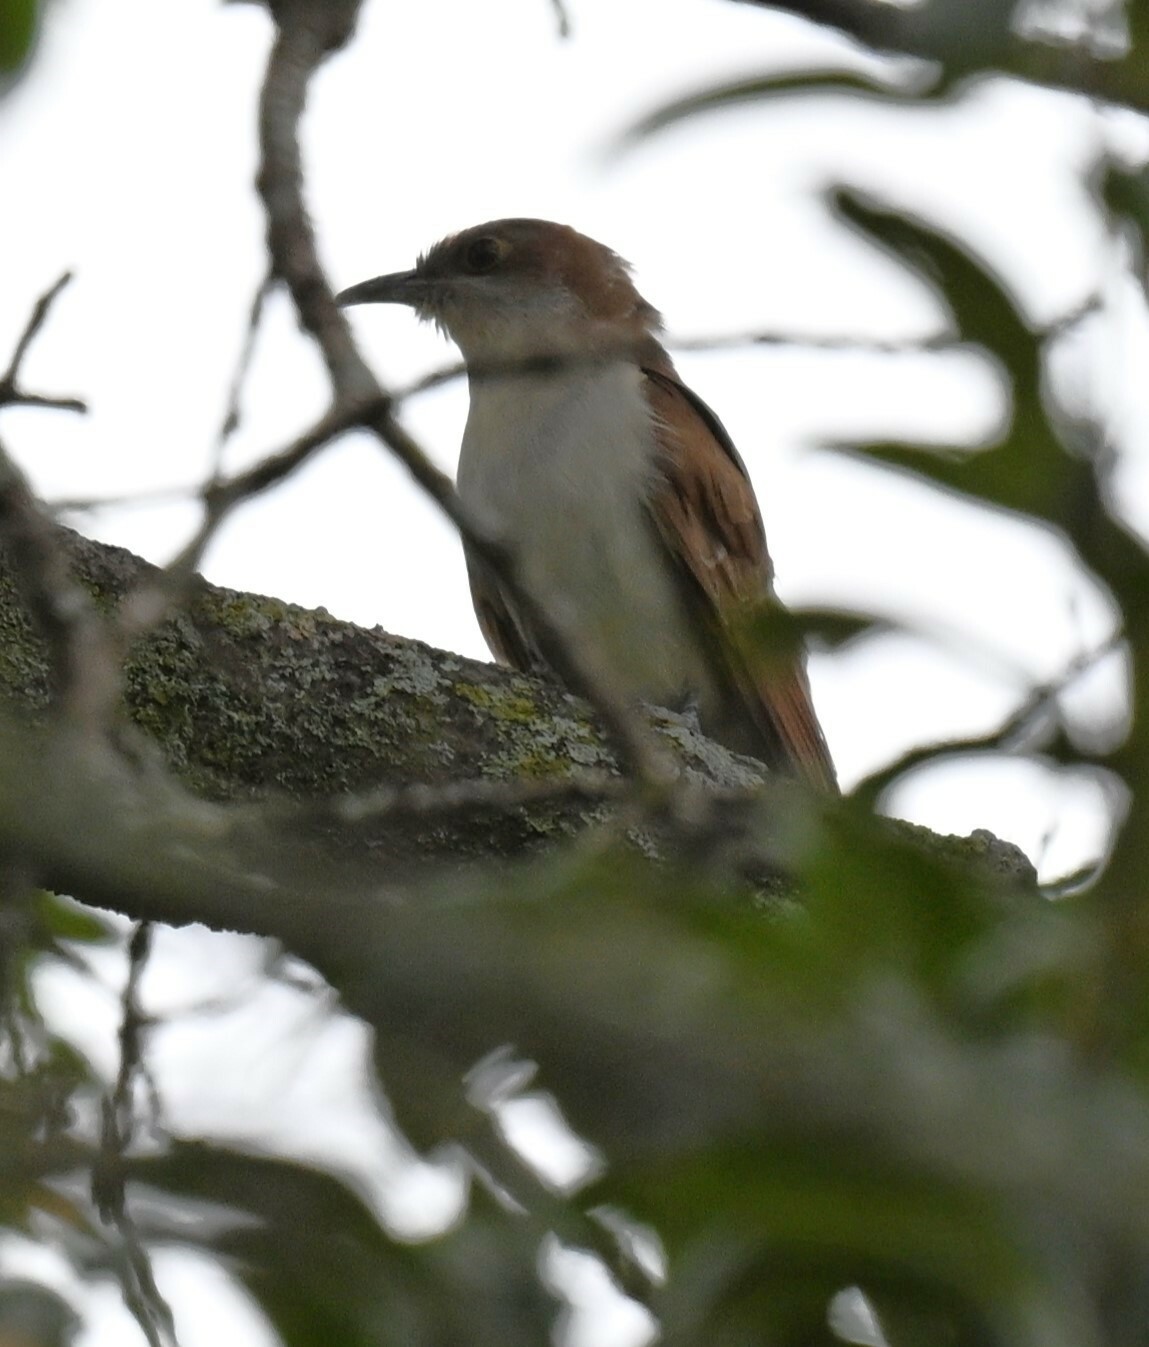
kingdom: Animalia
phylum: Chordata
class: Aves
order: Cuculiformes
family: Cuculidae
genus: Coccyzus
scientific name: Coccyzus erythropthalmus
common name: Black-billed cuckoo
